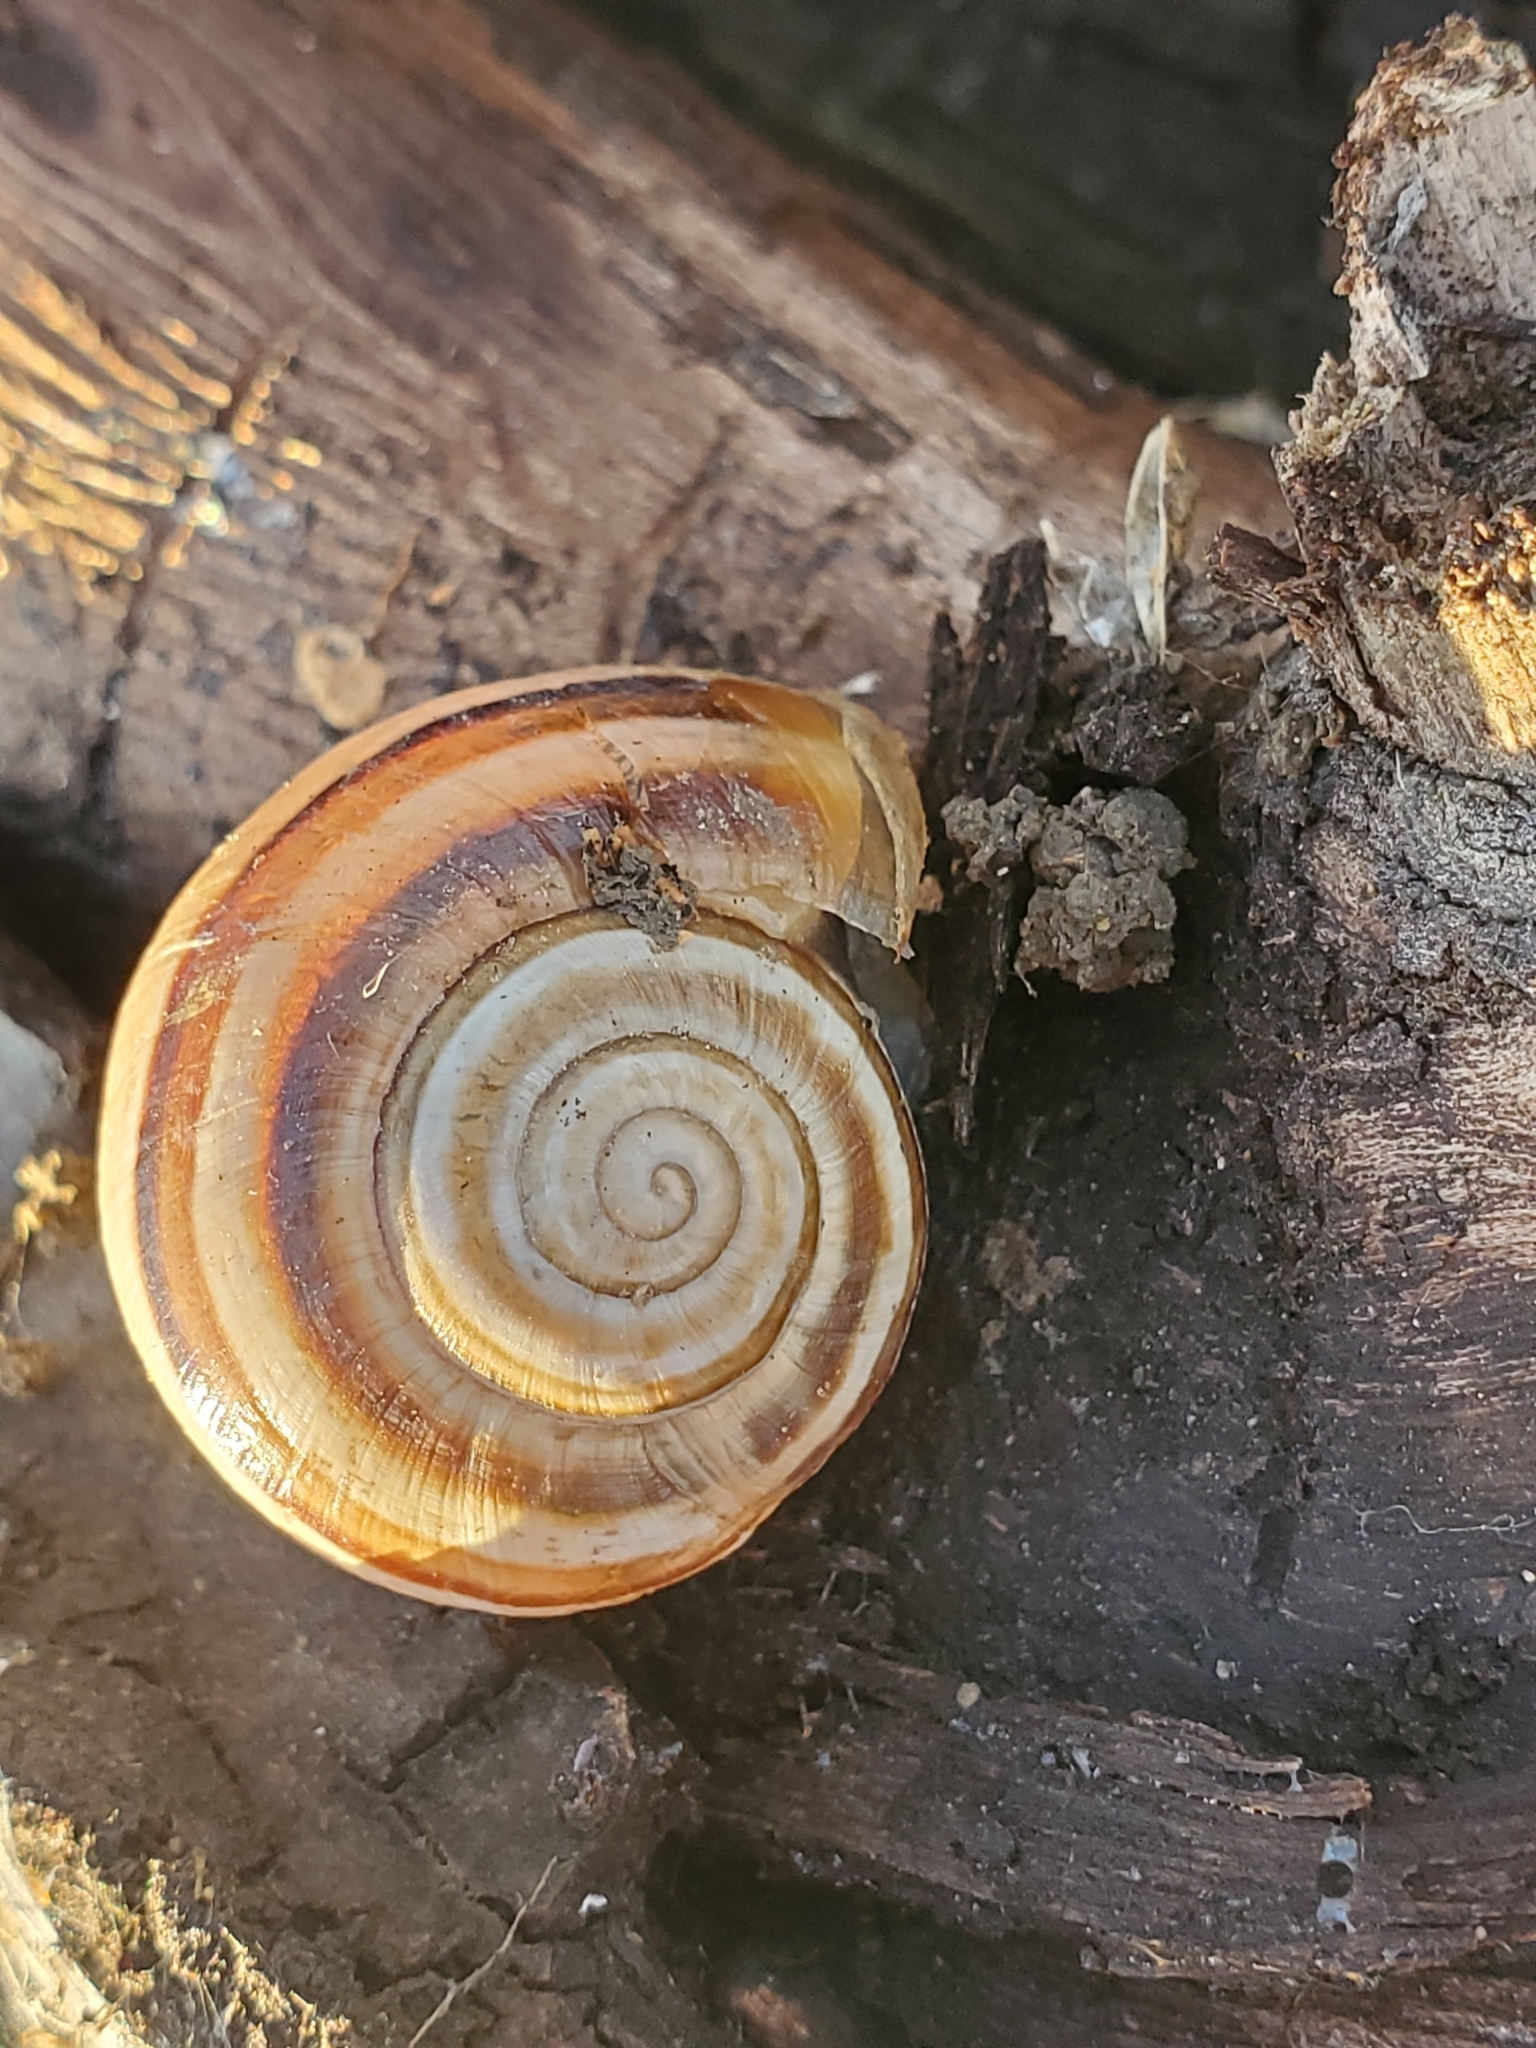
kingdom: Animalia
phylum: Mollusca
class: Gastropoda
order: Stylommatophora
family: Helicidae
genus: Otala
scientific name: Otala lactea
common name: Milk snail
